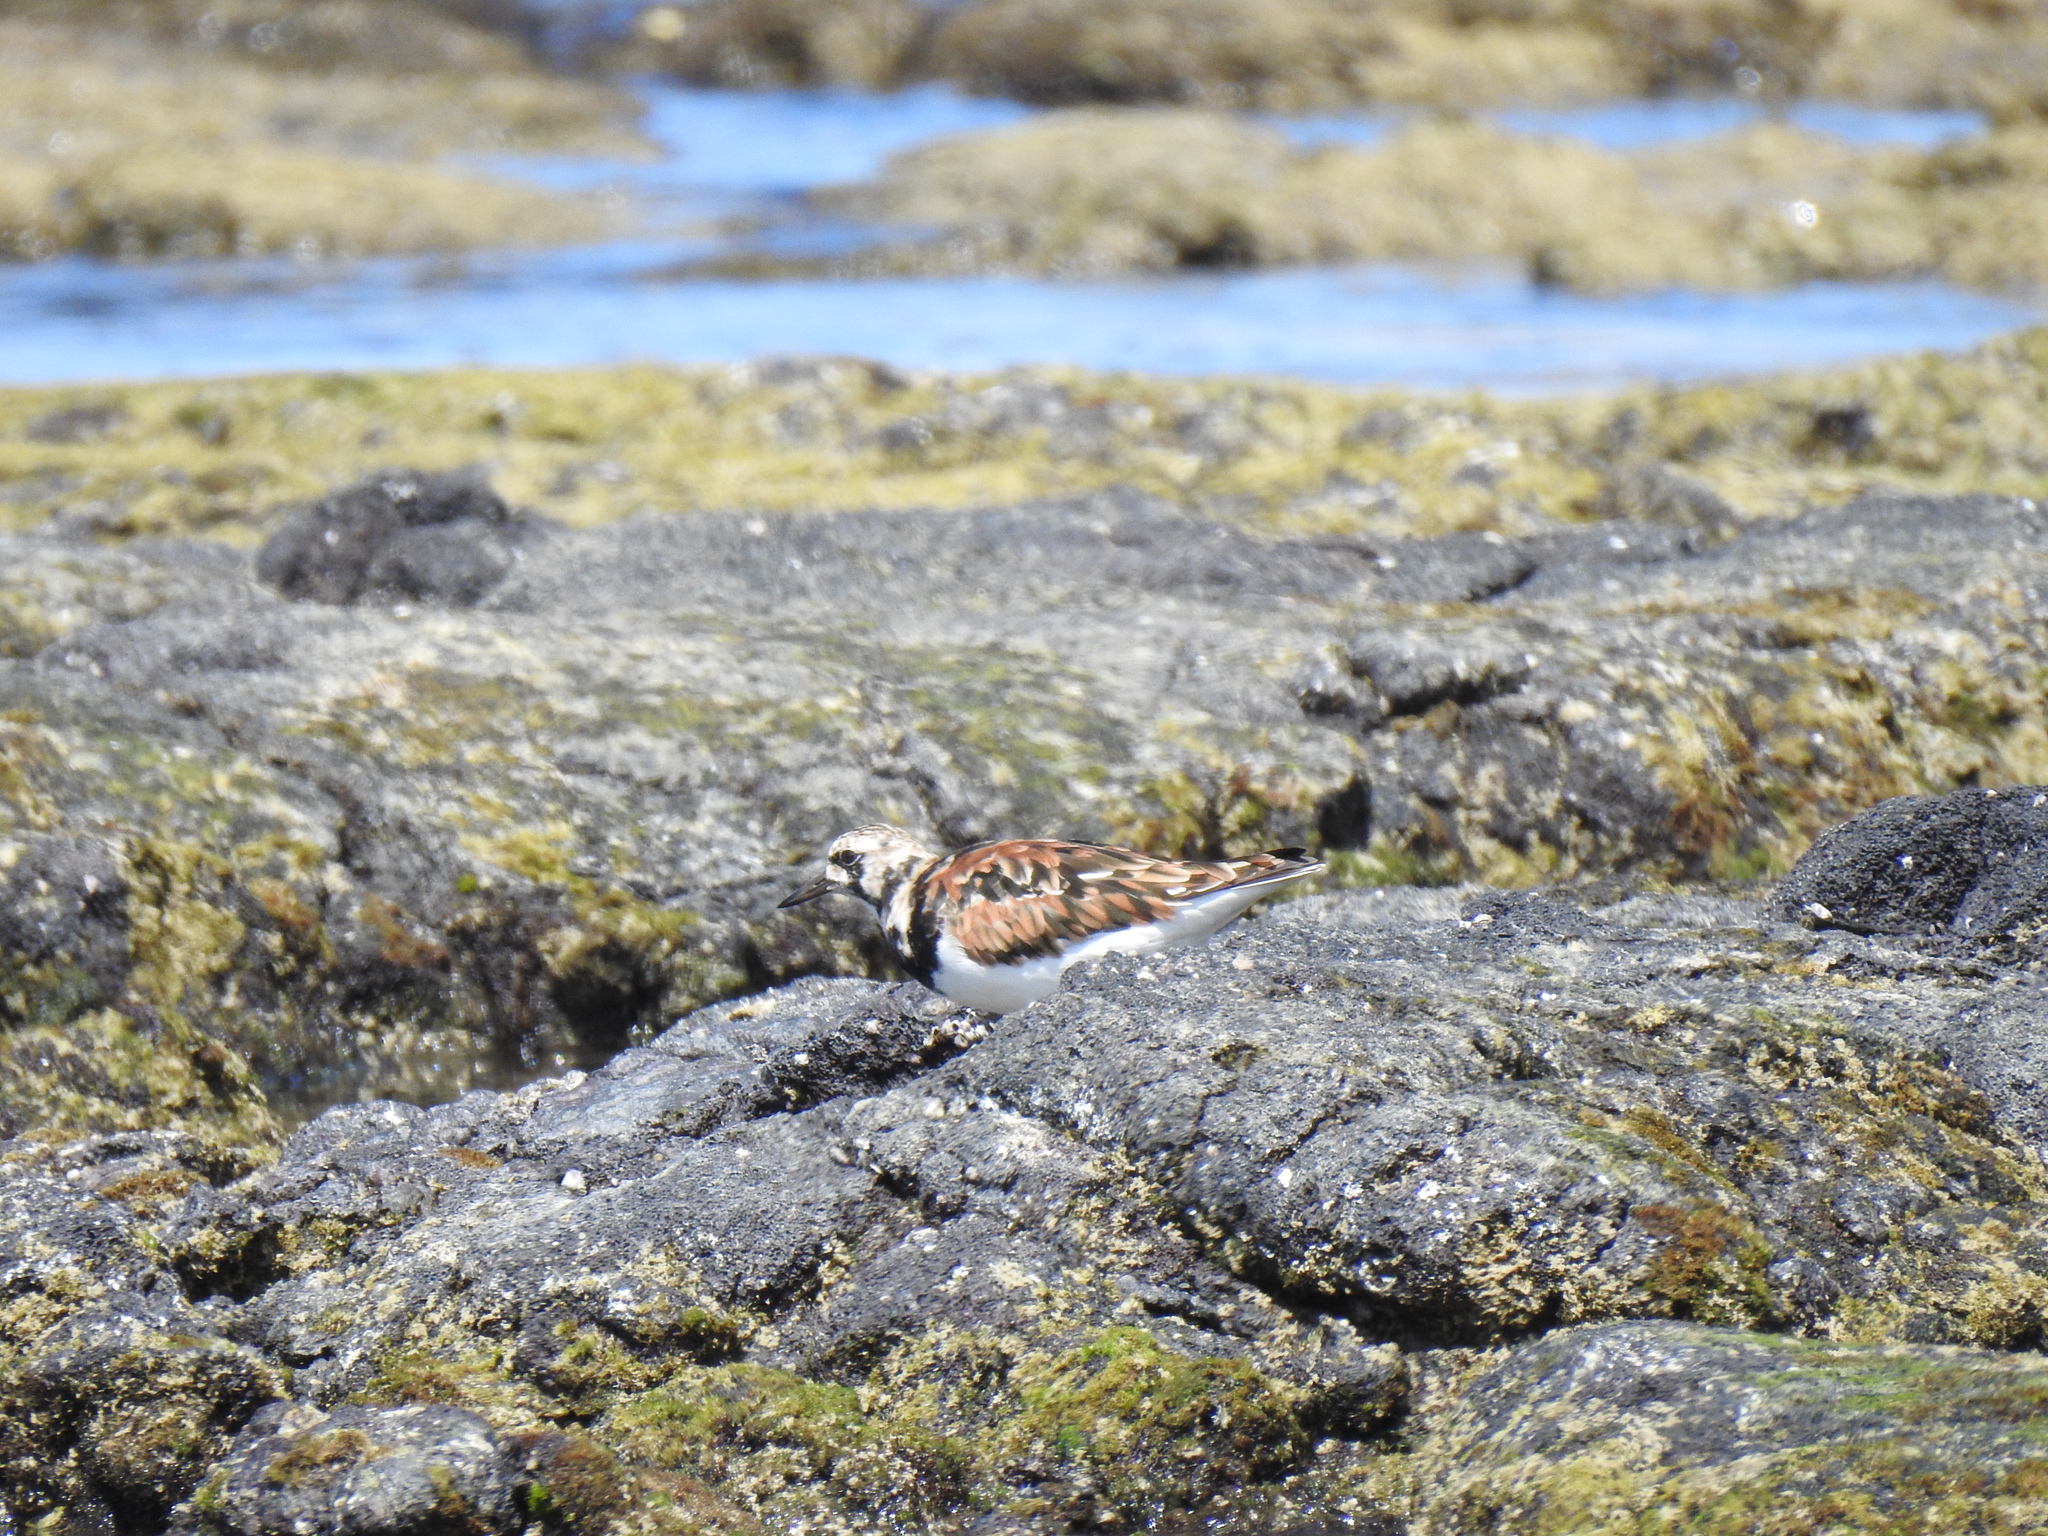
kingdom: Animalia
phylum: Chordata
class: Aves
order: Charadriiformes
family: Scolopacidae
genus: Arenaria
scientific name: Arenaria interpres
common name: Ruddy turnstone
